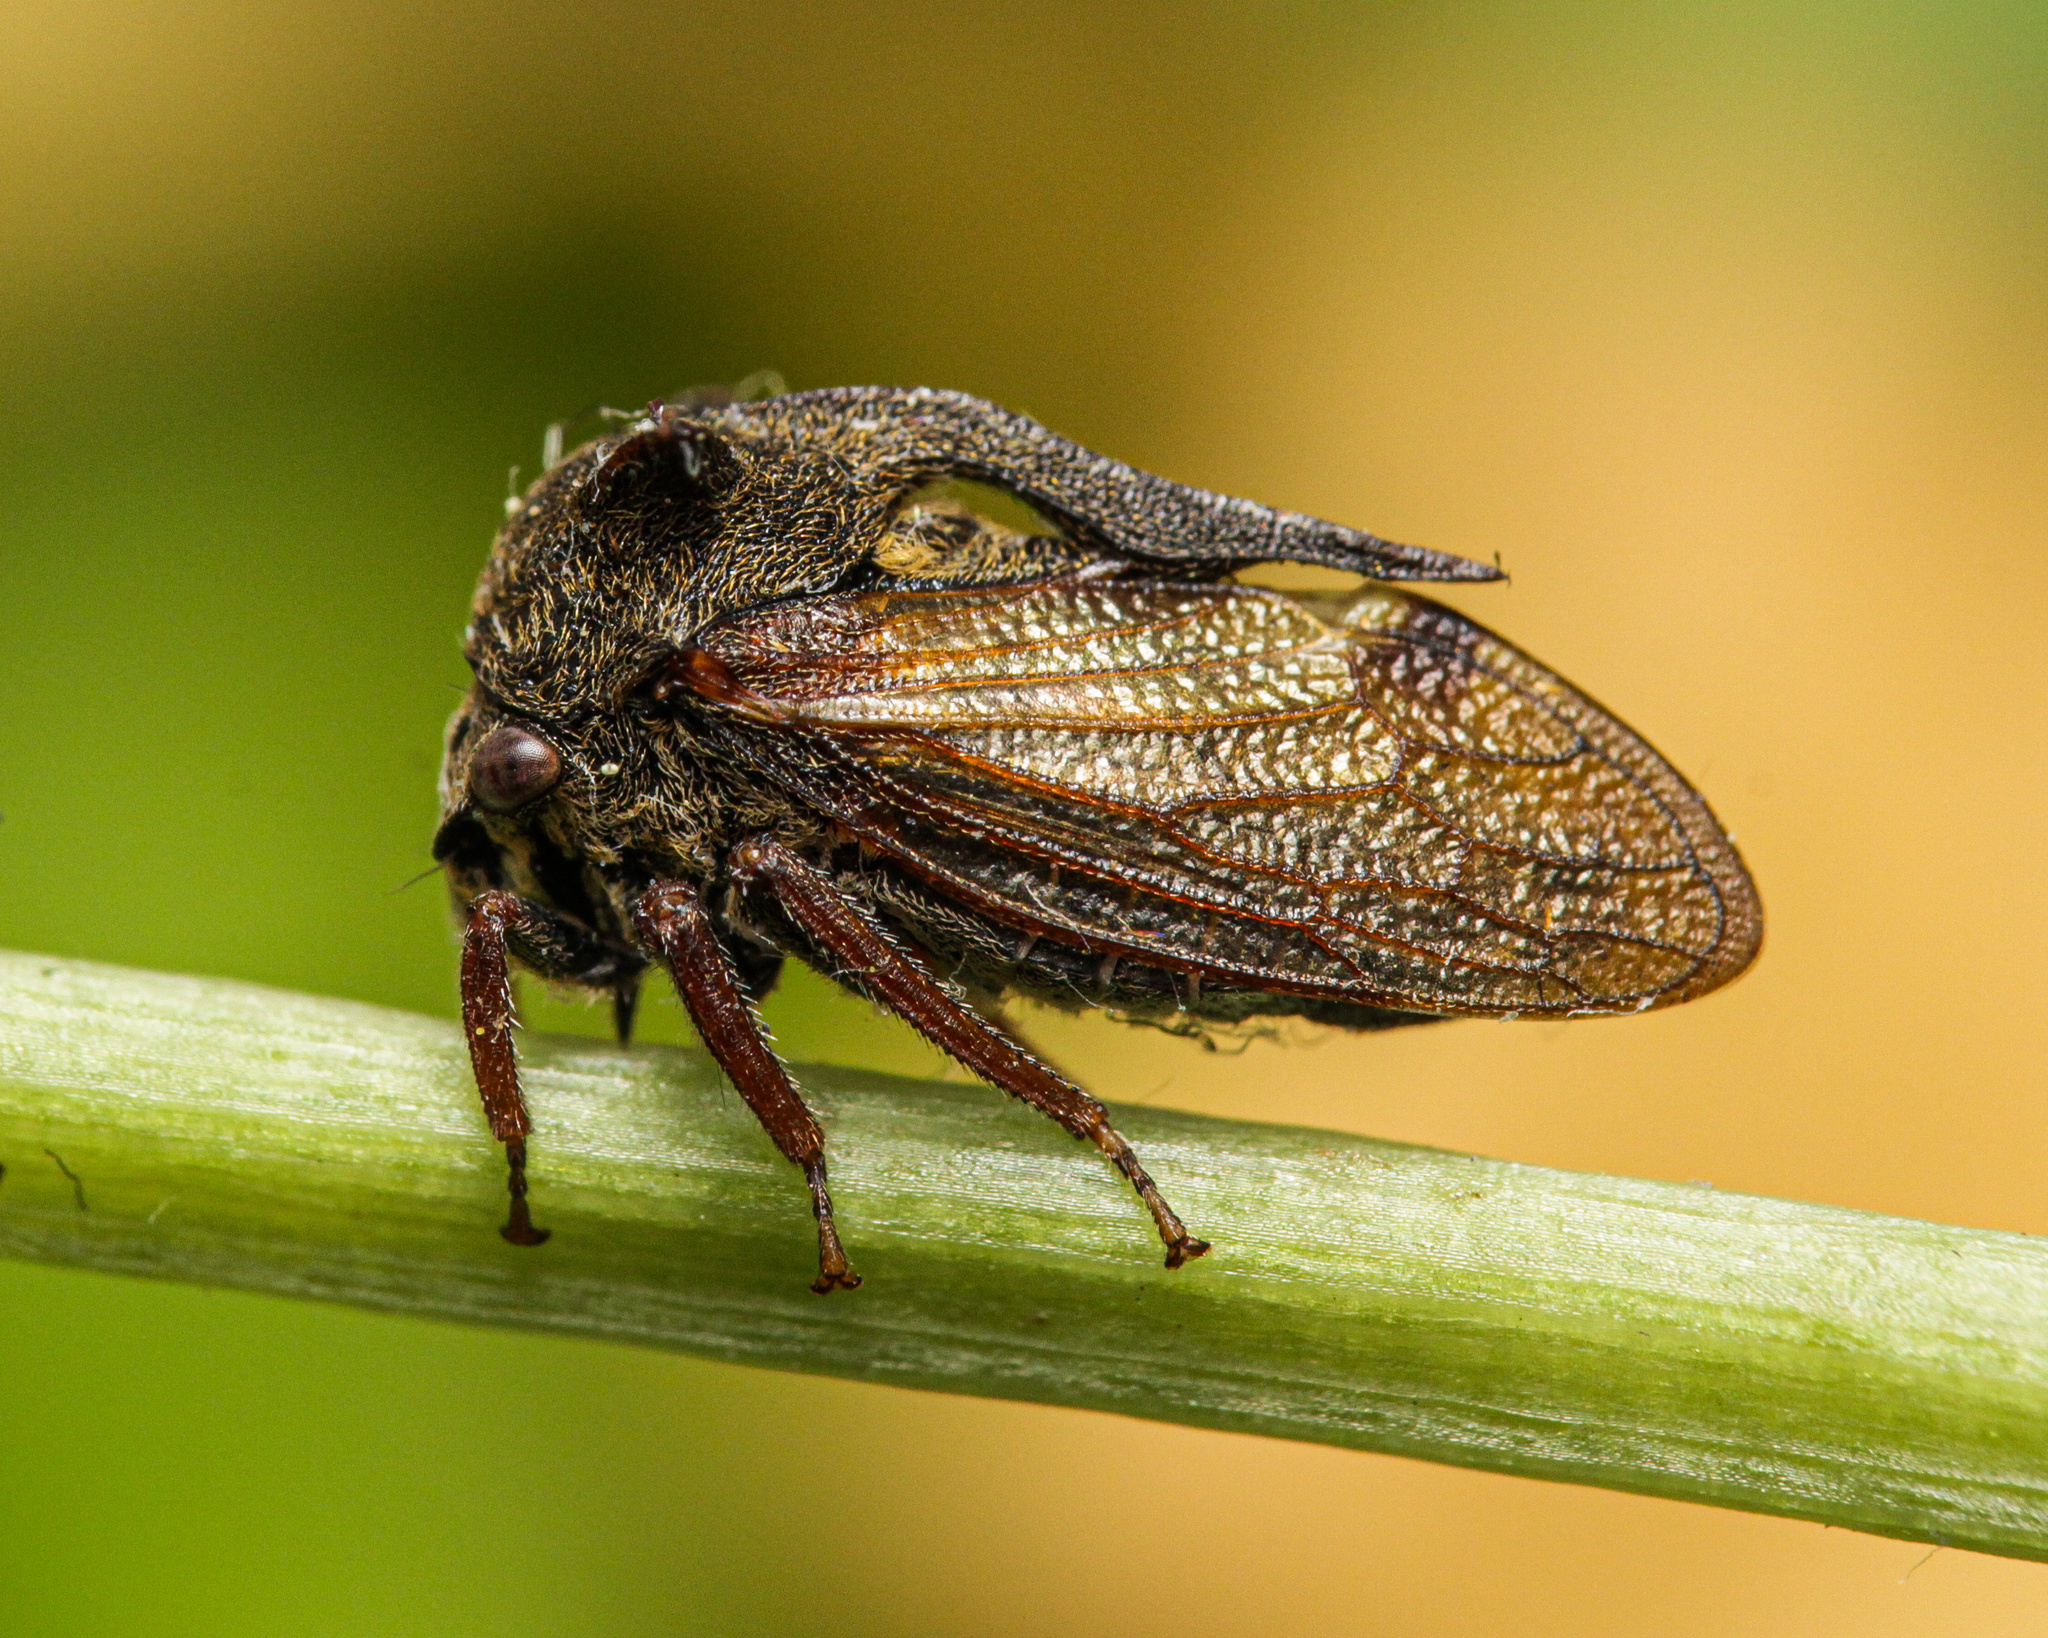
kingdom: Animalia
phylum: Arthropoda
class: Insecta
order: Hemiptera
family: Membracidae
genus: Centrotus
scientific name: Centrotus cornuta
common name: Treehopper
